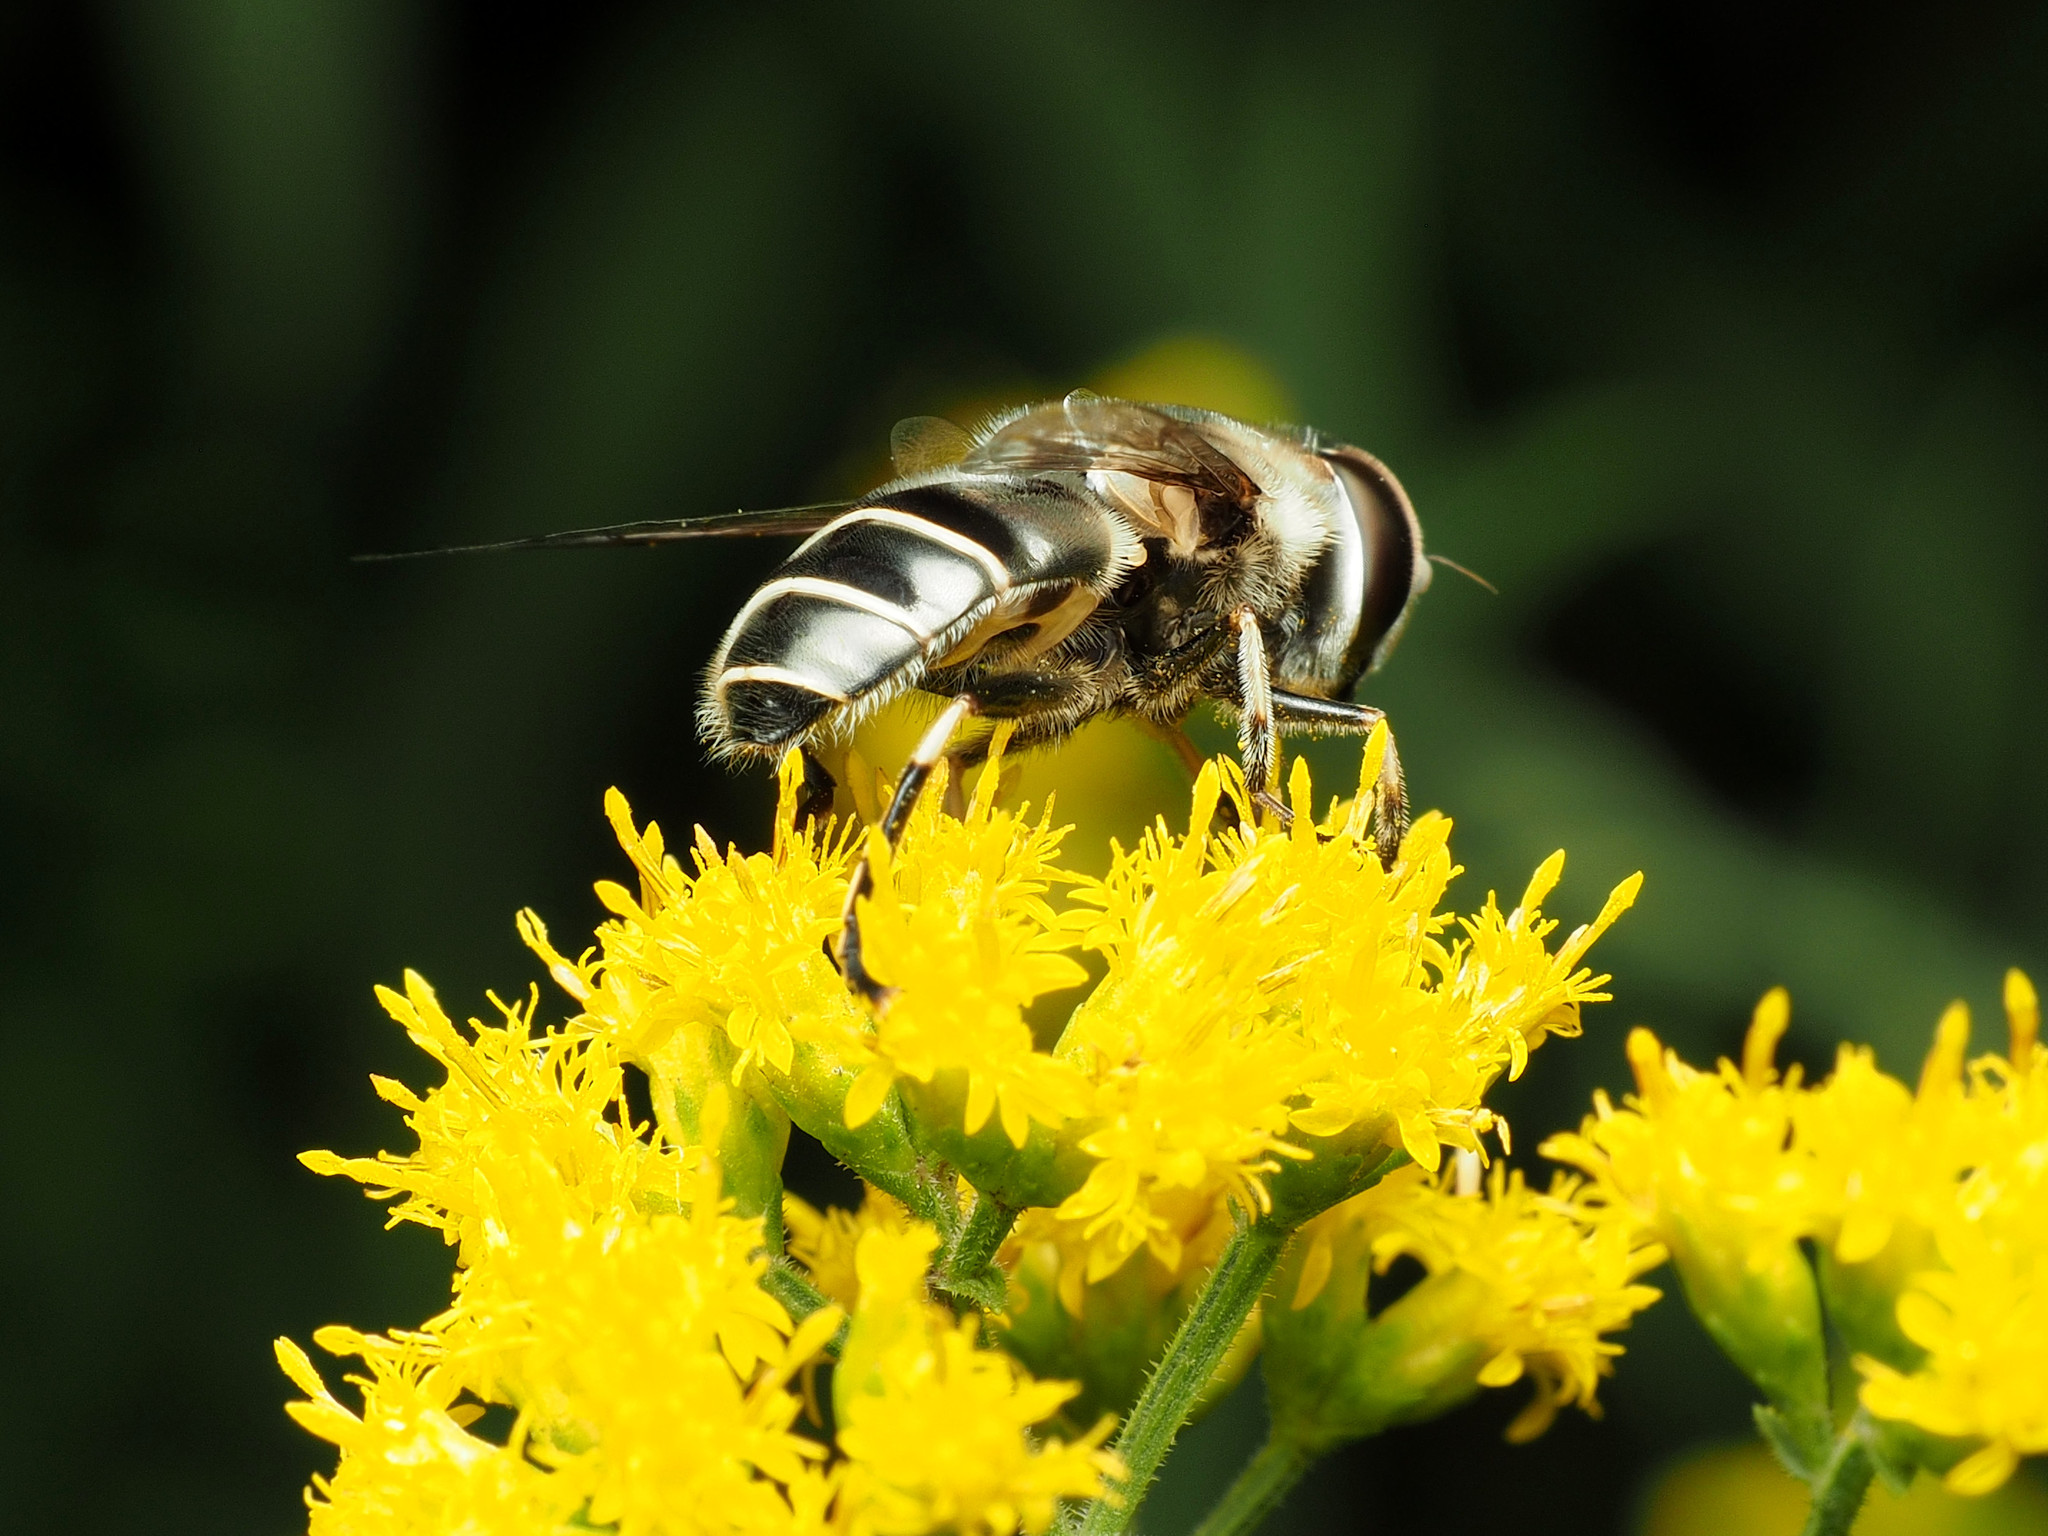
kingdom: Animalia
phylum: Arthropoda
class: Insecta
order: Diptera
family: Syrphidae
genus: Eristalis
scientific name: Eristalis dimidiata
